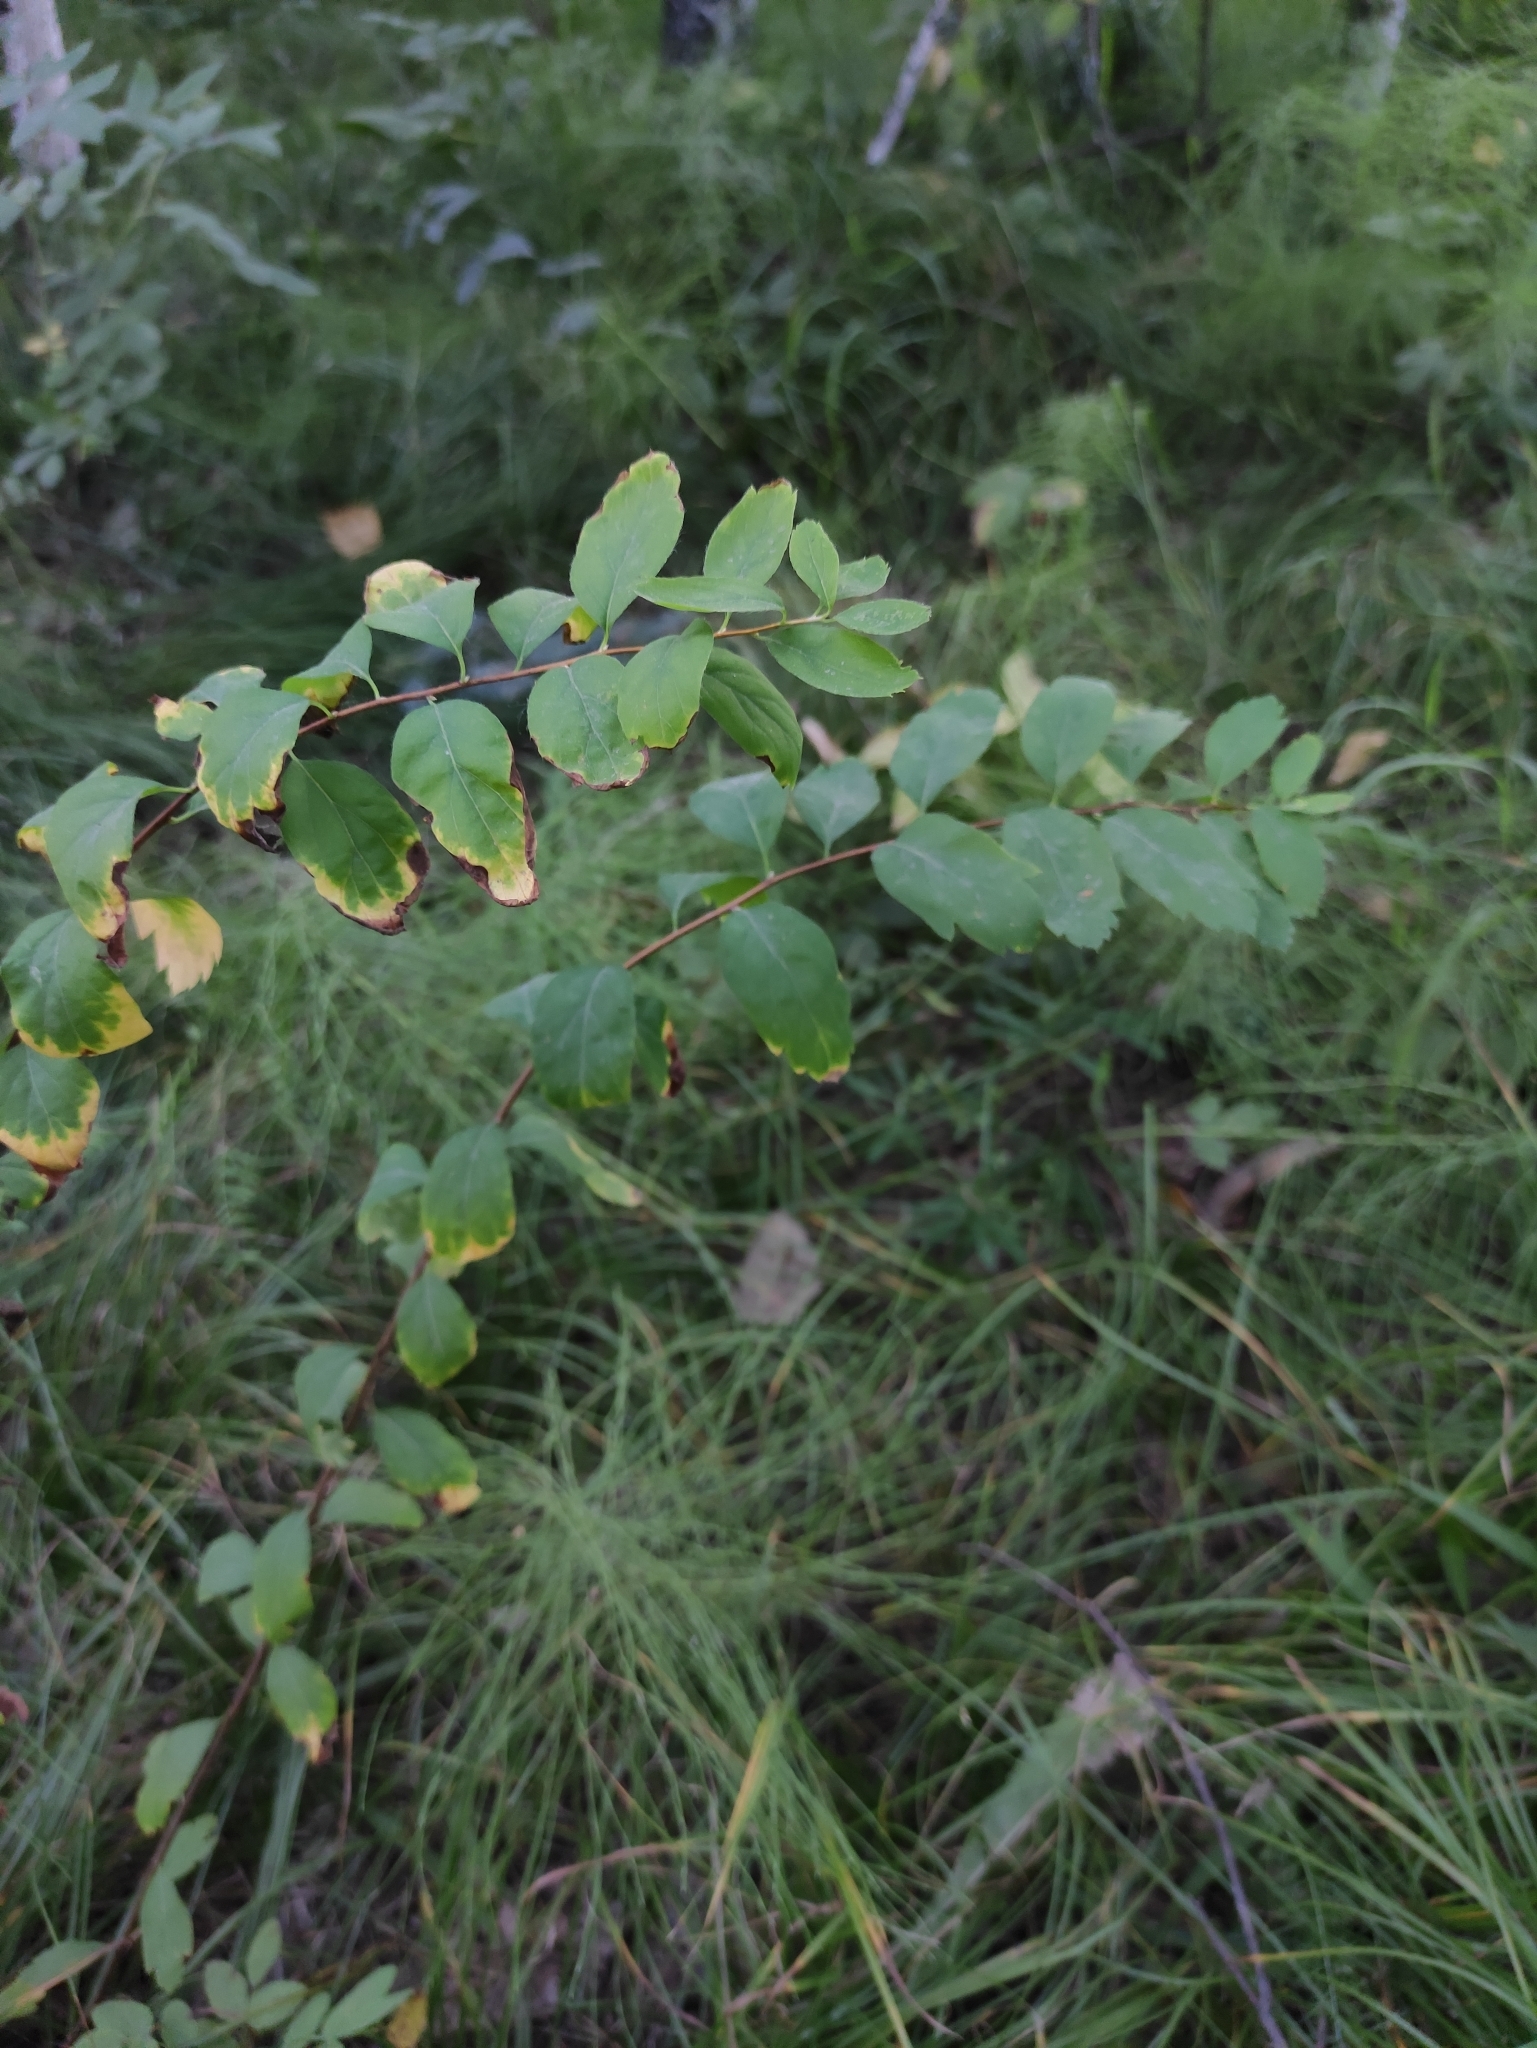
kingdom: Plantae
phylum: Tracheophyta
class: Magnoliopsida
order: Rosales
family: Rosaceae
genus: Spiraea
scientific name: Spiraea media
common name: Russian spiraea
